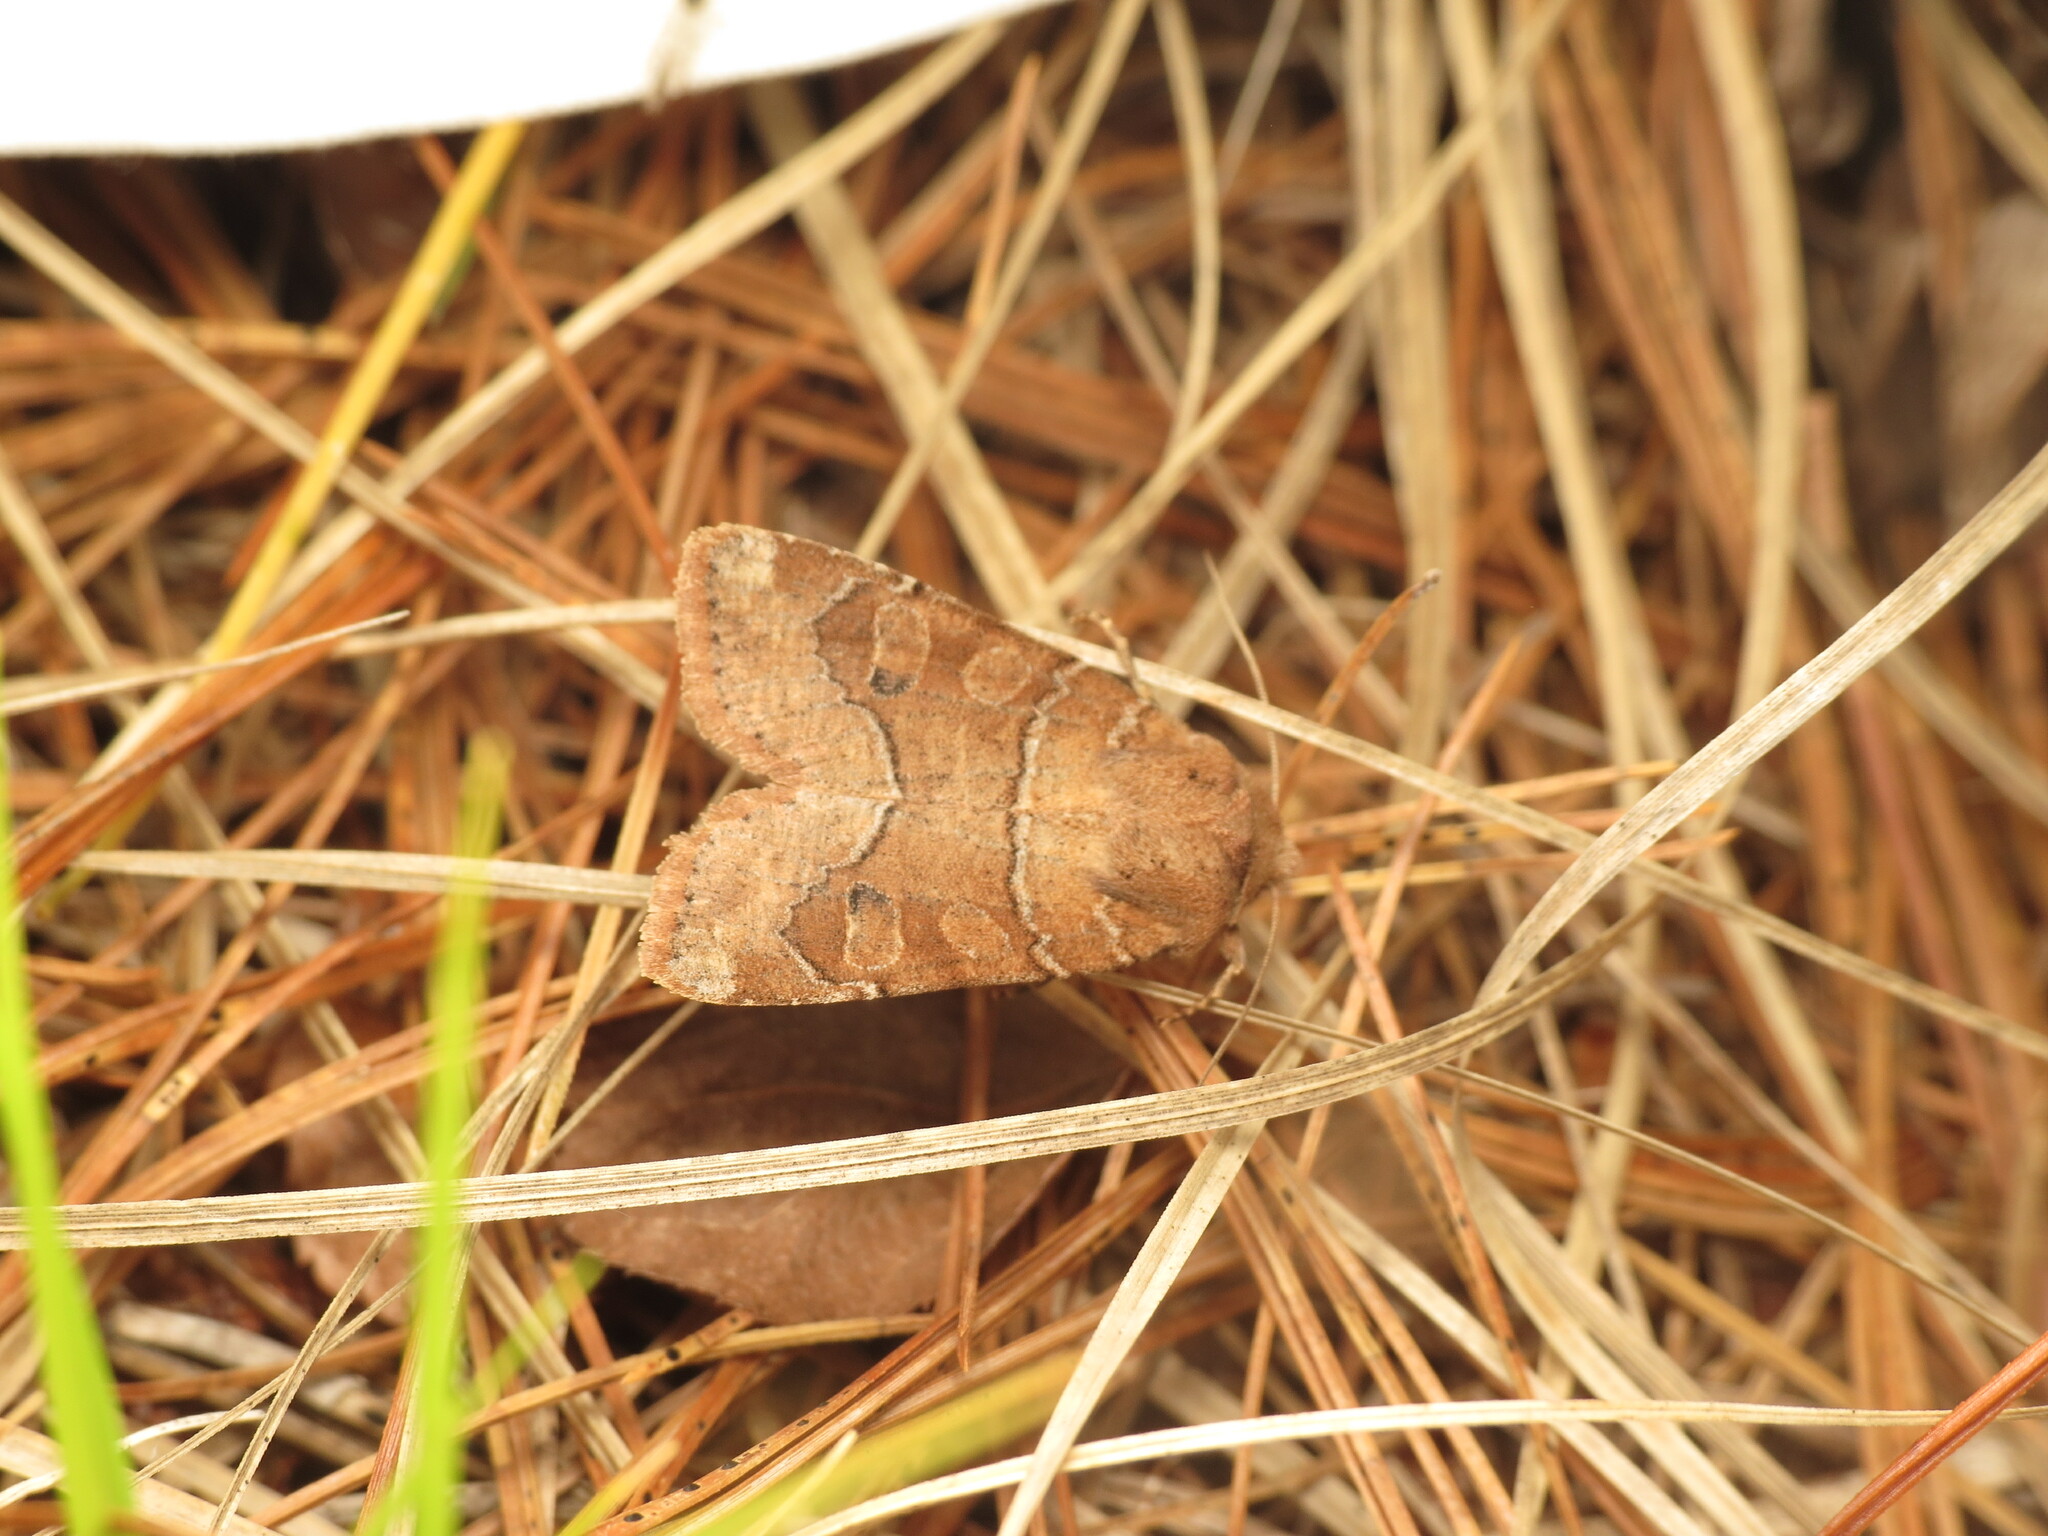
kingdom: Animalia
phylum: Arthropoda
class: Insecta
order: Lepidoptera
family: Noctuidae
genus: Crocigrapha
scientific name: Crocigrapha normani
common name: Norman's quaker
